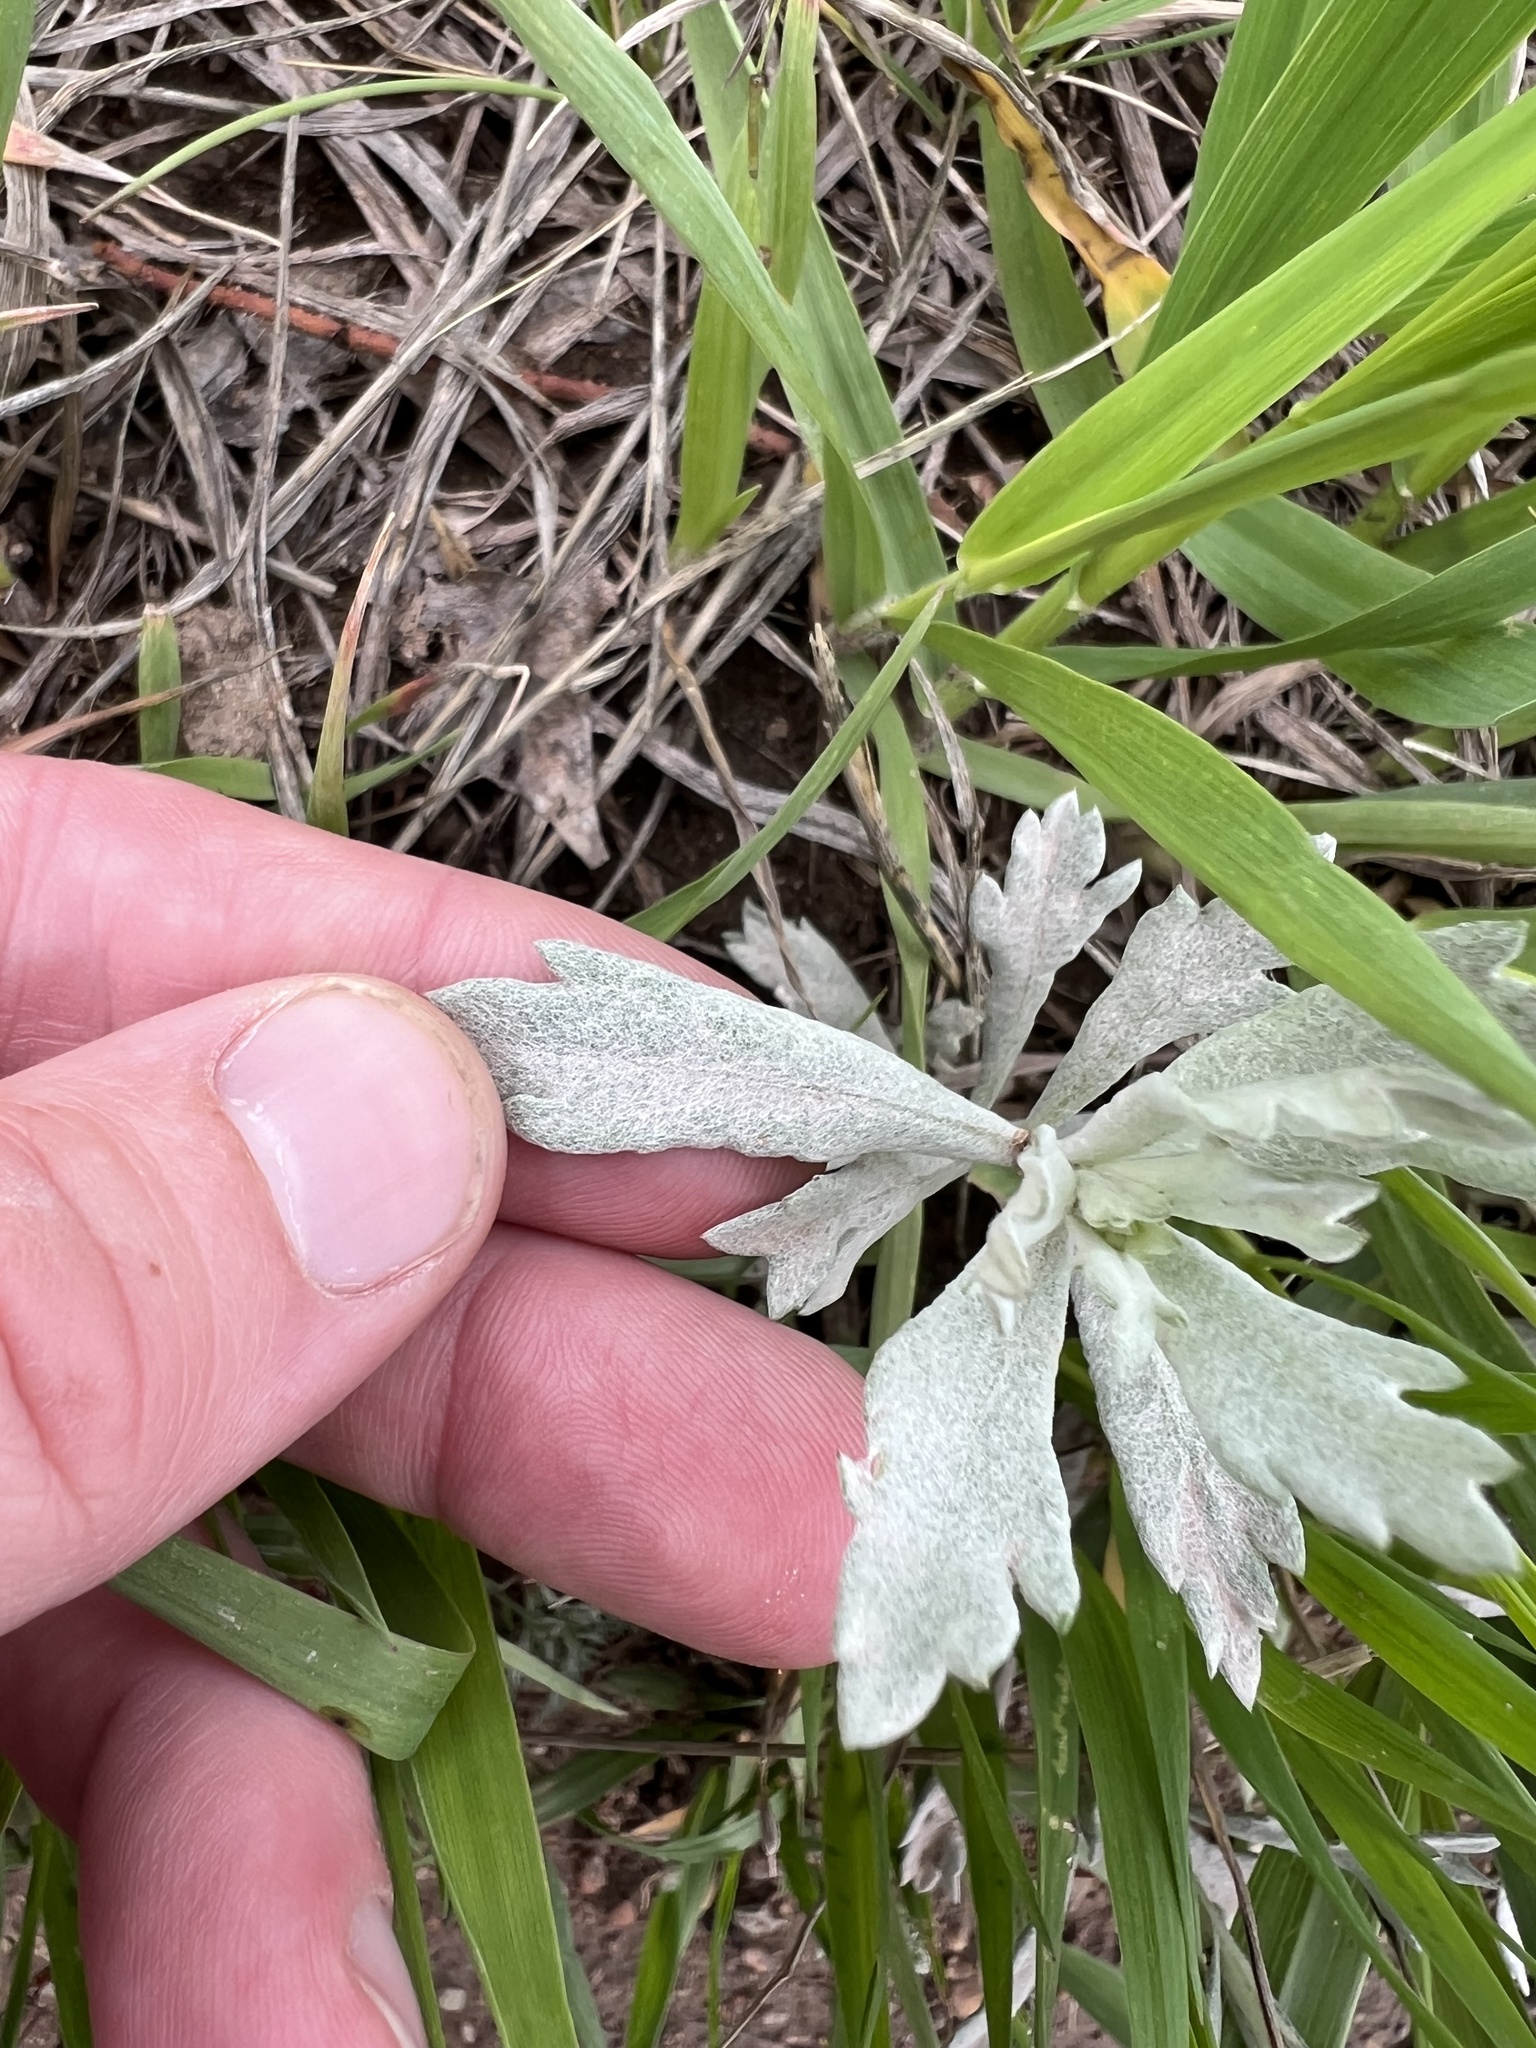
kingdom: Plantae
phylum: Tracheophyta
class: Magnoliopsida
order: Asterales
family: Asteraceae
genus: Artemisia
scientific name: Artemisia ludoviciana
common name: Western mugwort
